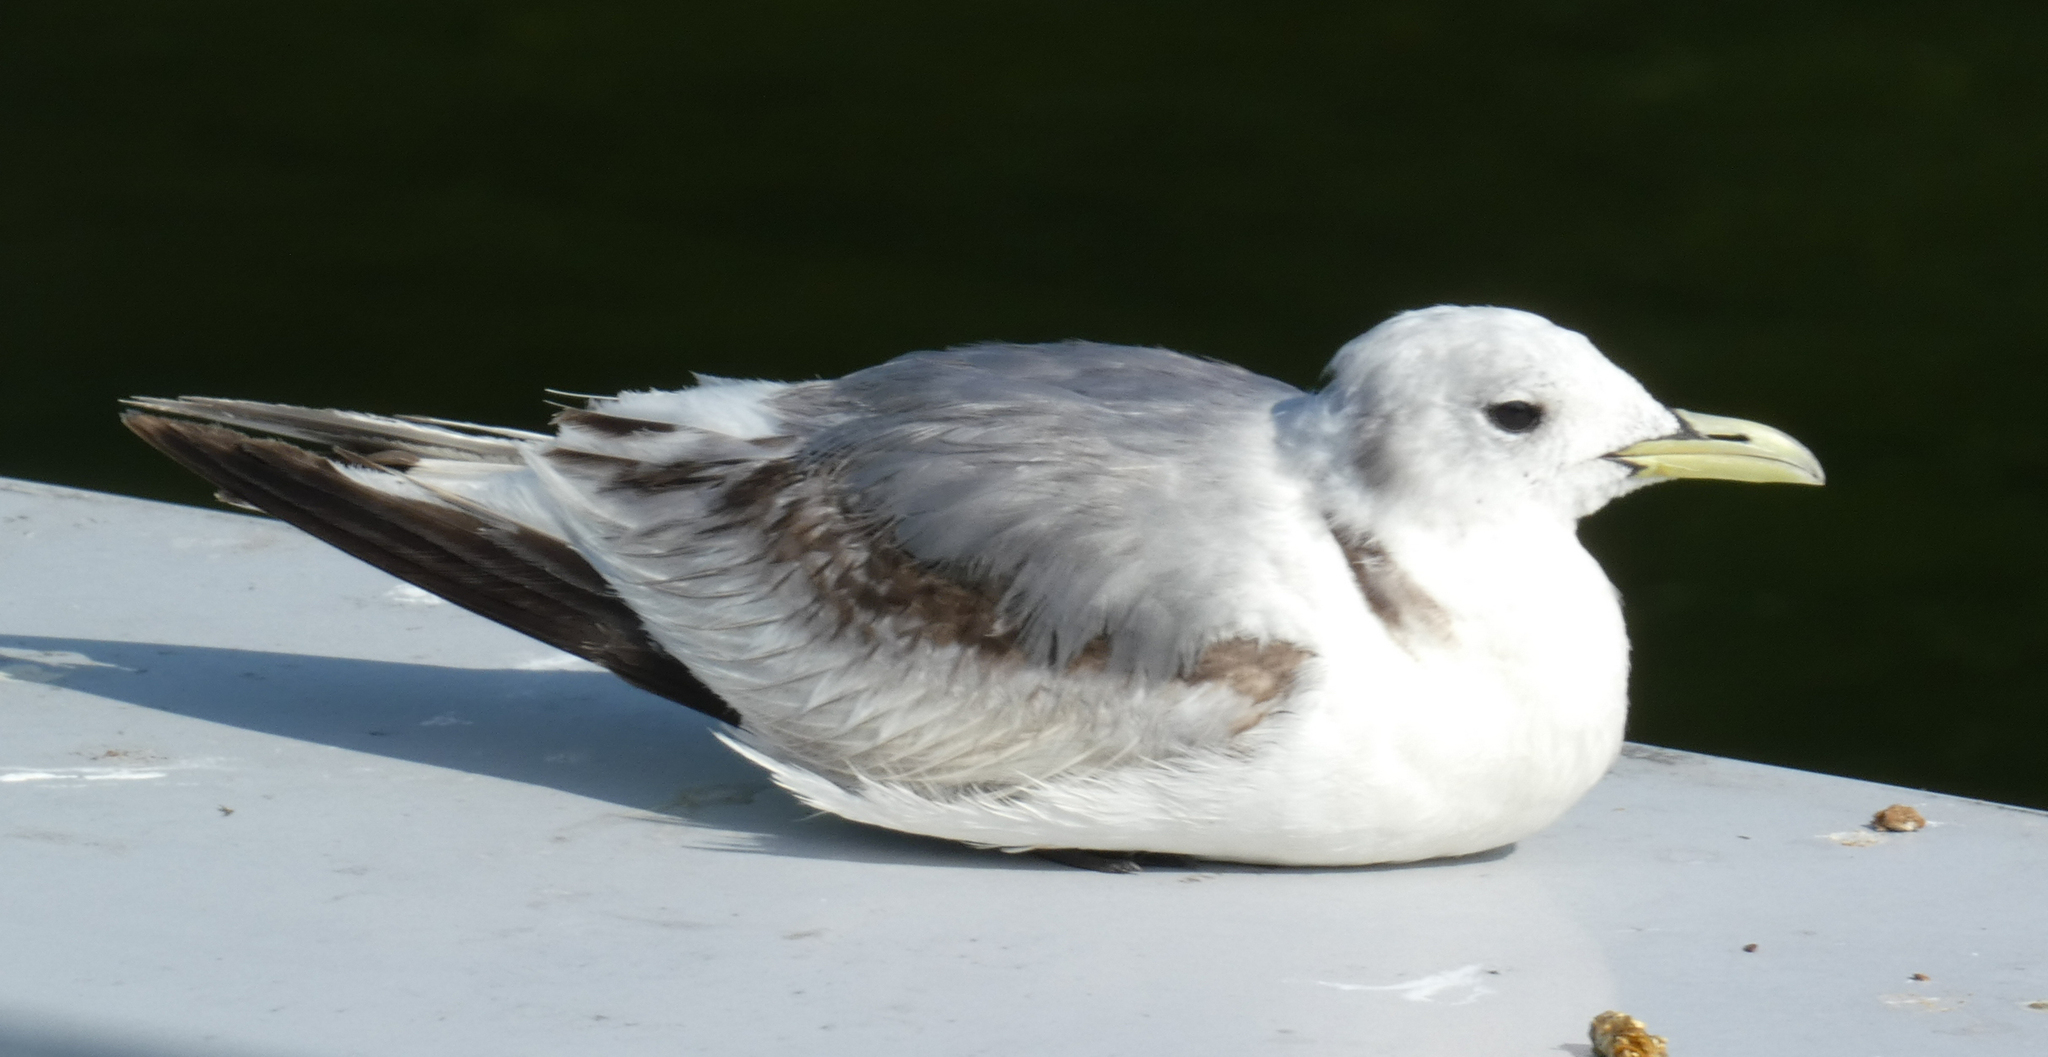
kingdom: Animalia
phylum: Chordata
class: Aves
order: Charadriiformes
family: Laridae
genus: Rissa
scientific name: Rissa tridactyla
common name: Black-legged kittiwake
